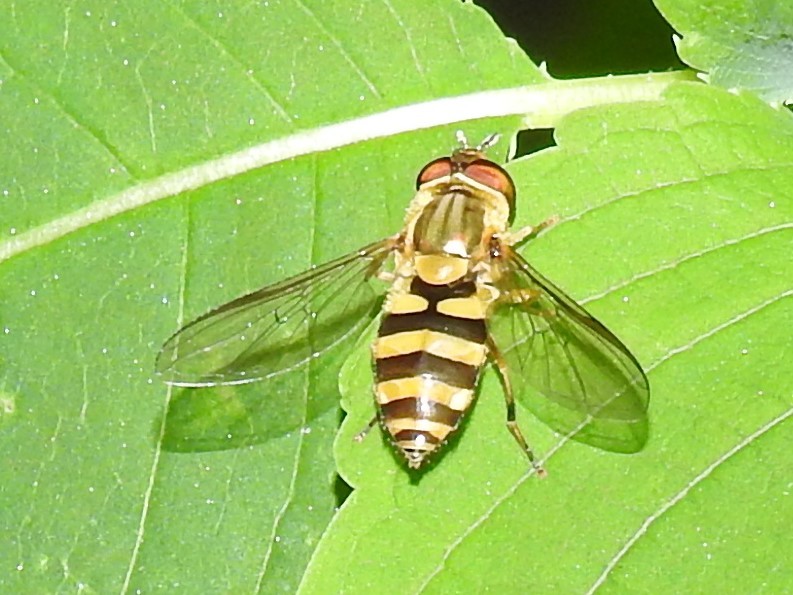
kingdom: Animalia
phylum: Arthropoda
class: Insecta
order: Diptera
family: Syrphidae
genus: Syrphus
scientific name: Syrphus knabi
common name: Eastern flower fly
